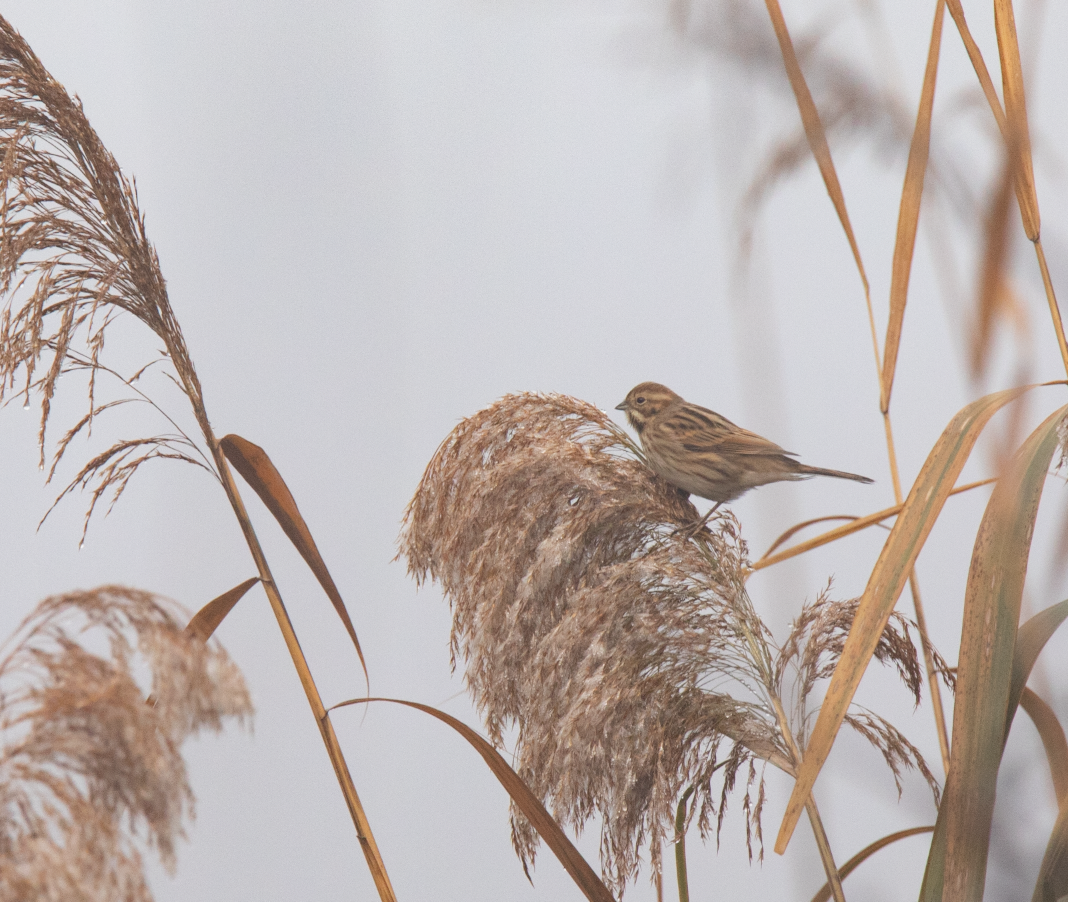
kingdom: Animalia
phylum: Chordata
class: Aves
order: Passeriformes
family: Emberizidae
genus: Emberiza
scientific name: Emberiza schoeniclus
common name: Reed bunting
